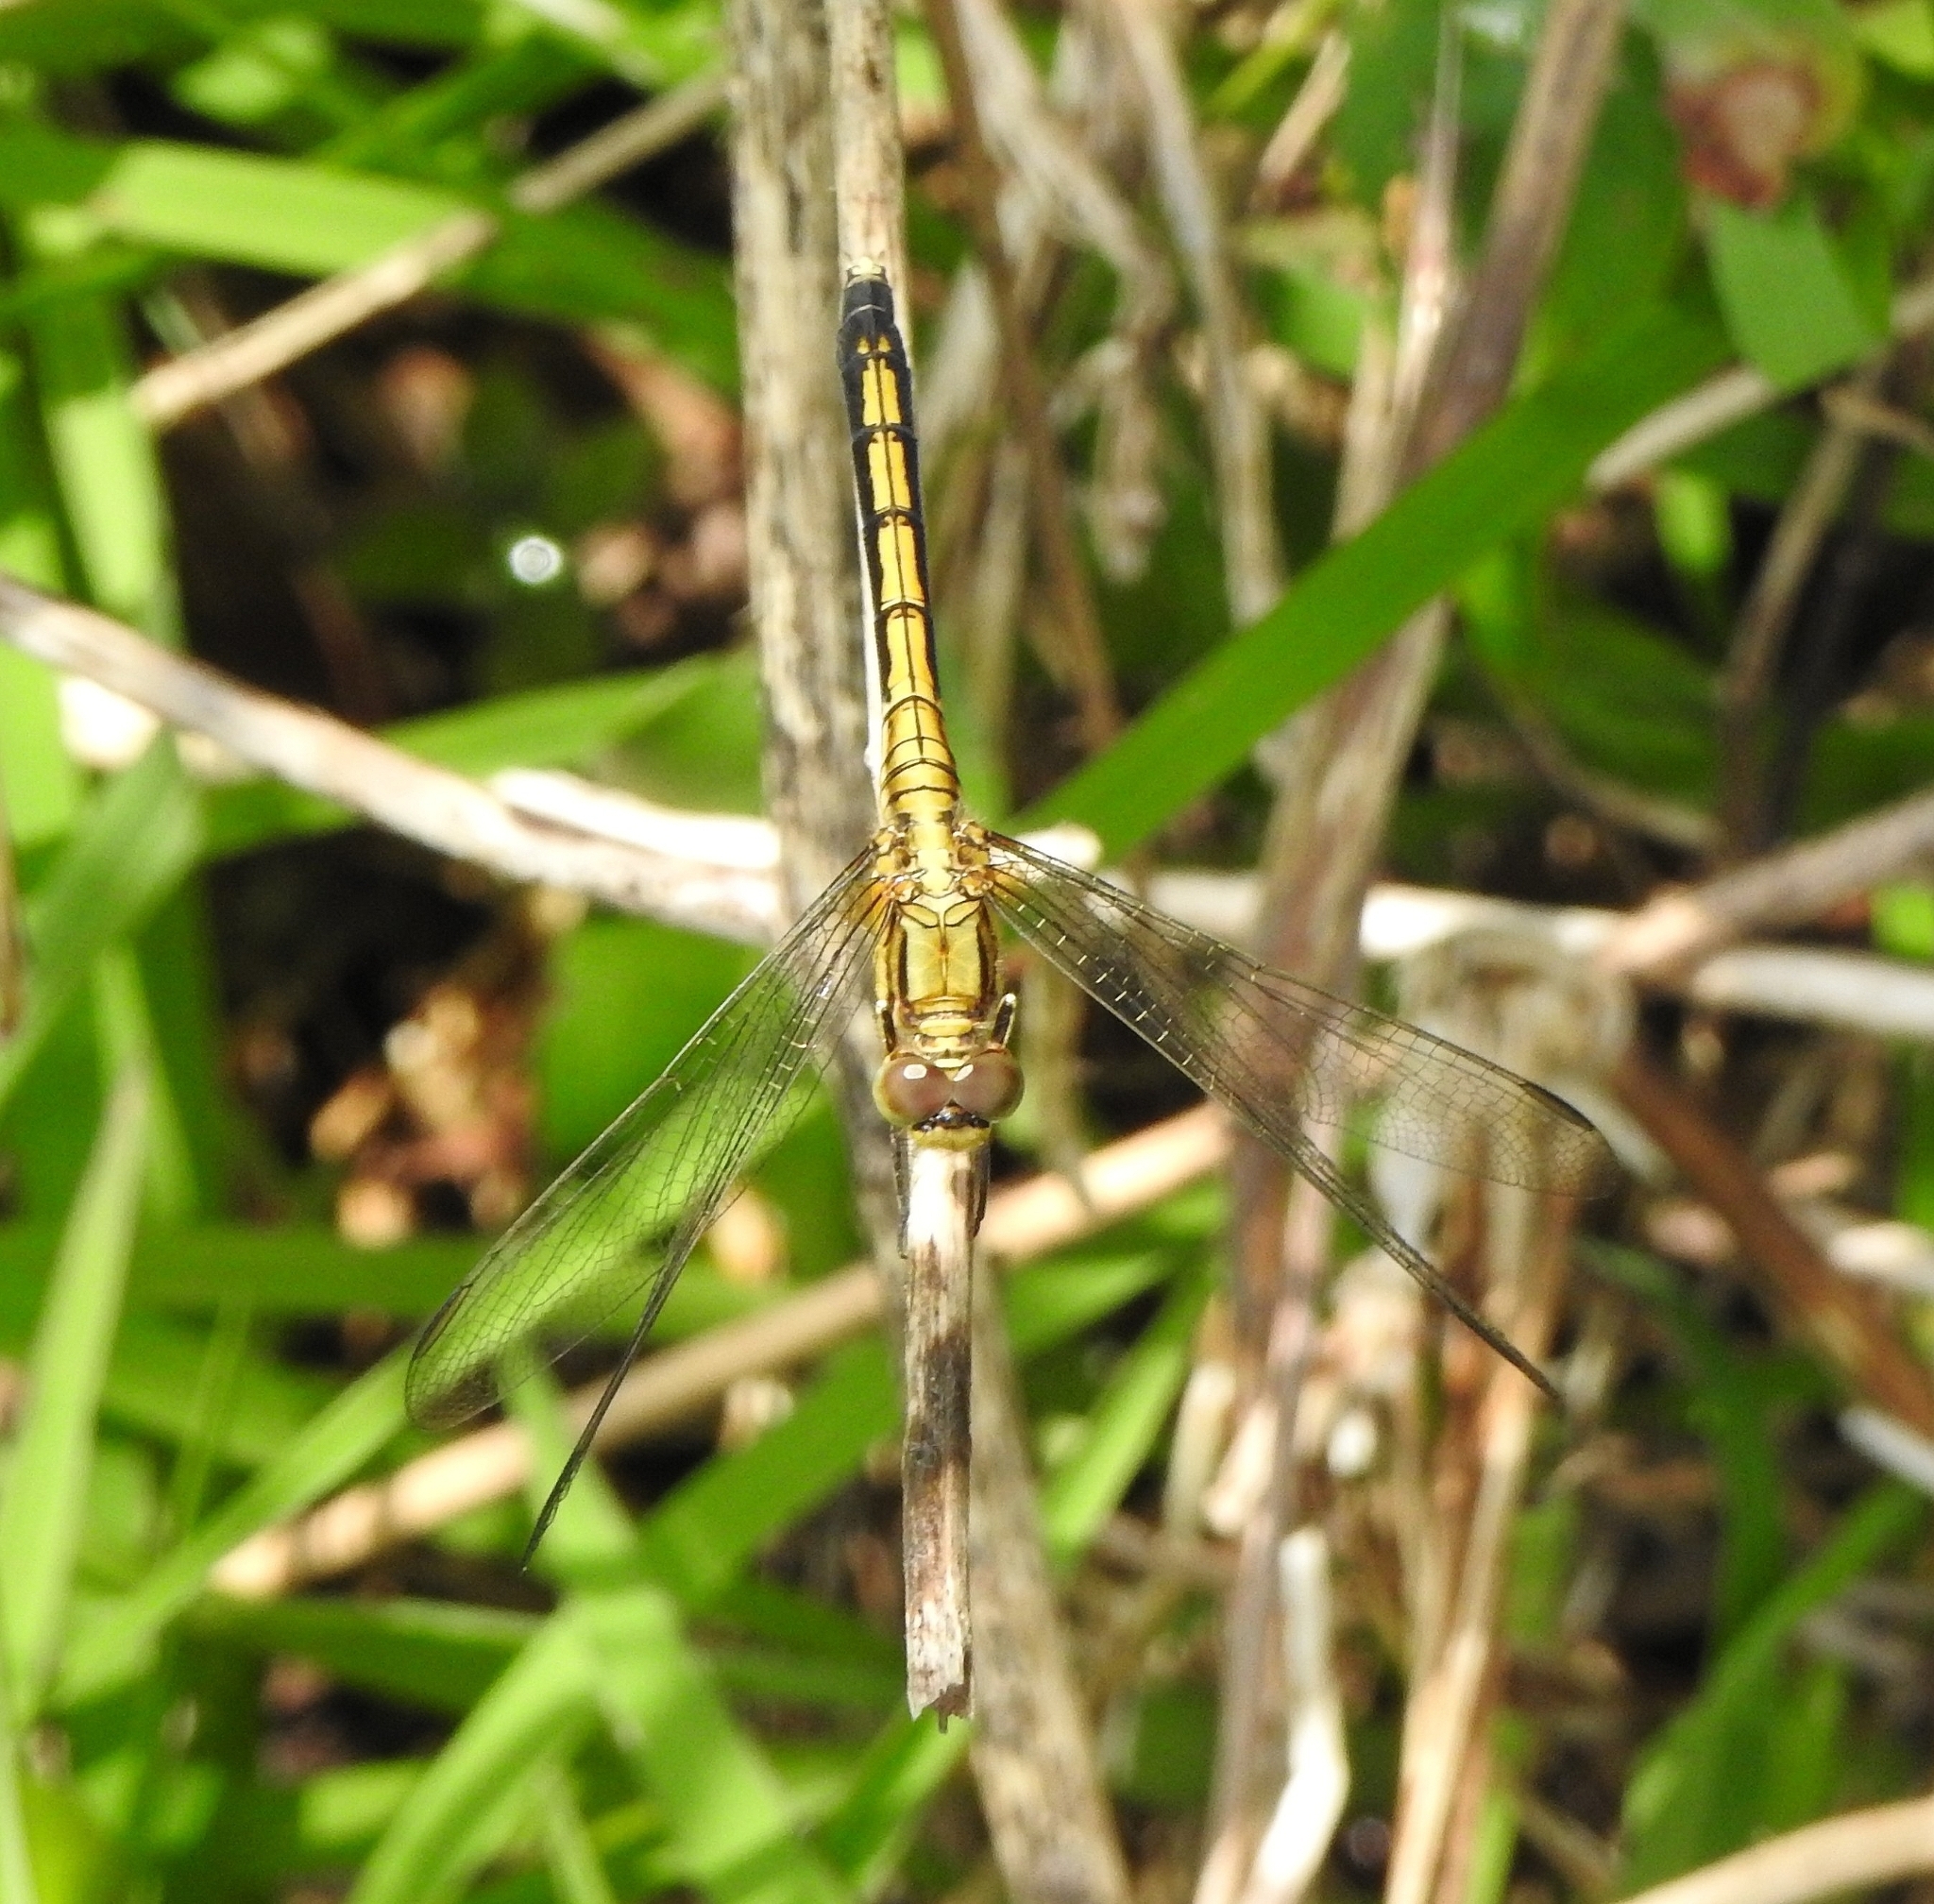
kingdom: Animalia
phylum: Arthropoda
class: Insecta
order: Odonata
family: Libellulidae
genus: Orthetrum
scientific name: Orthetrum luzonicum
